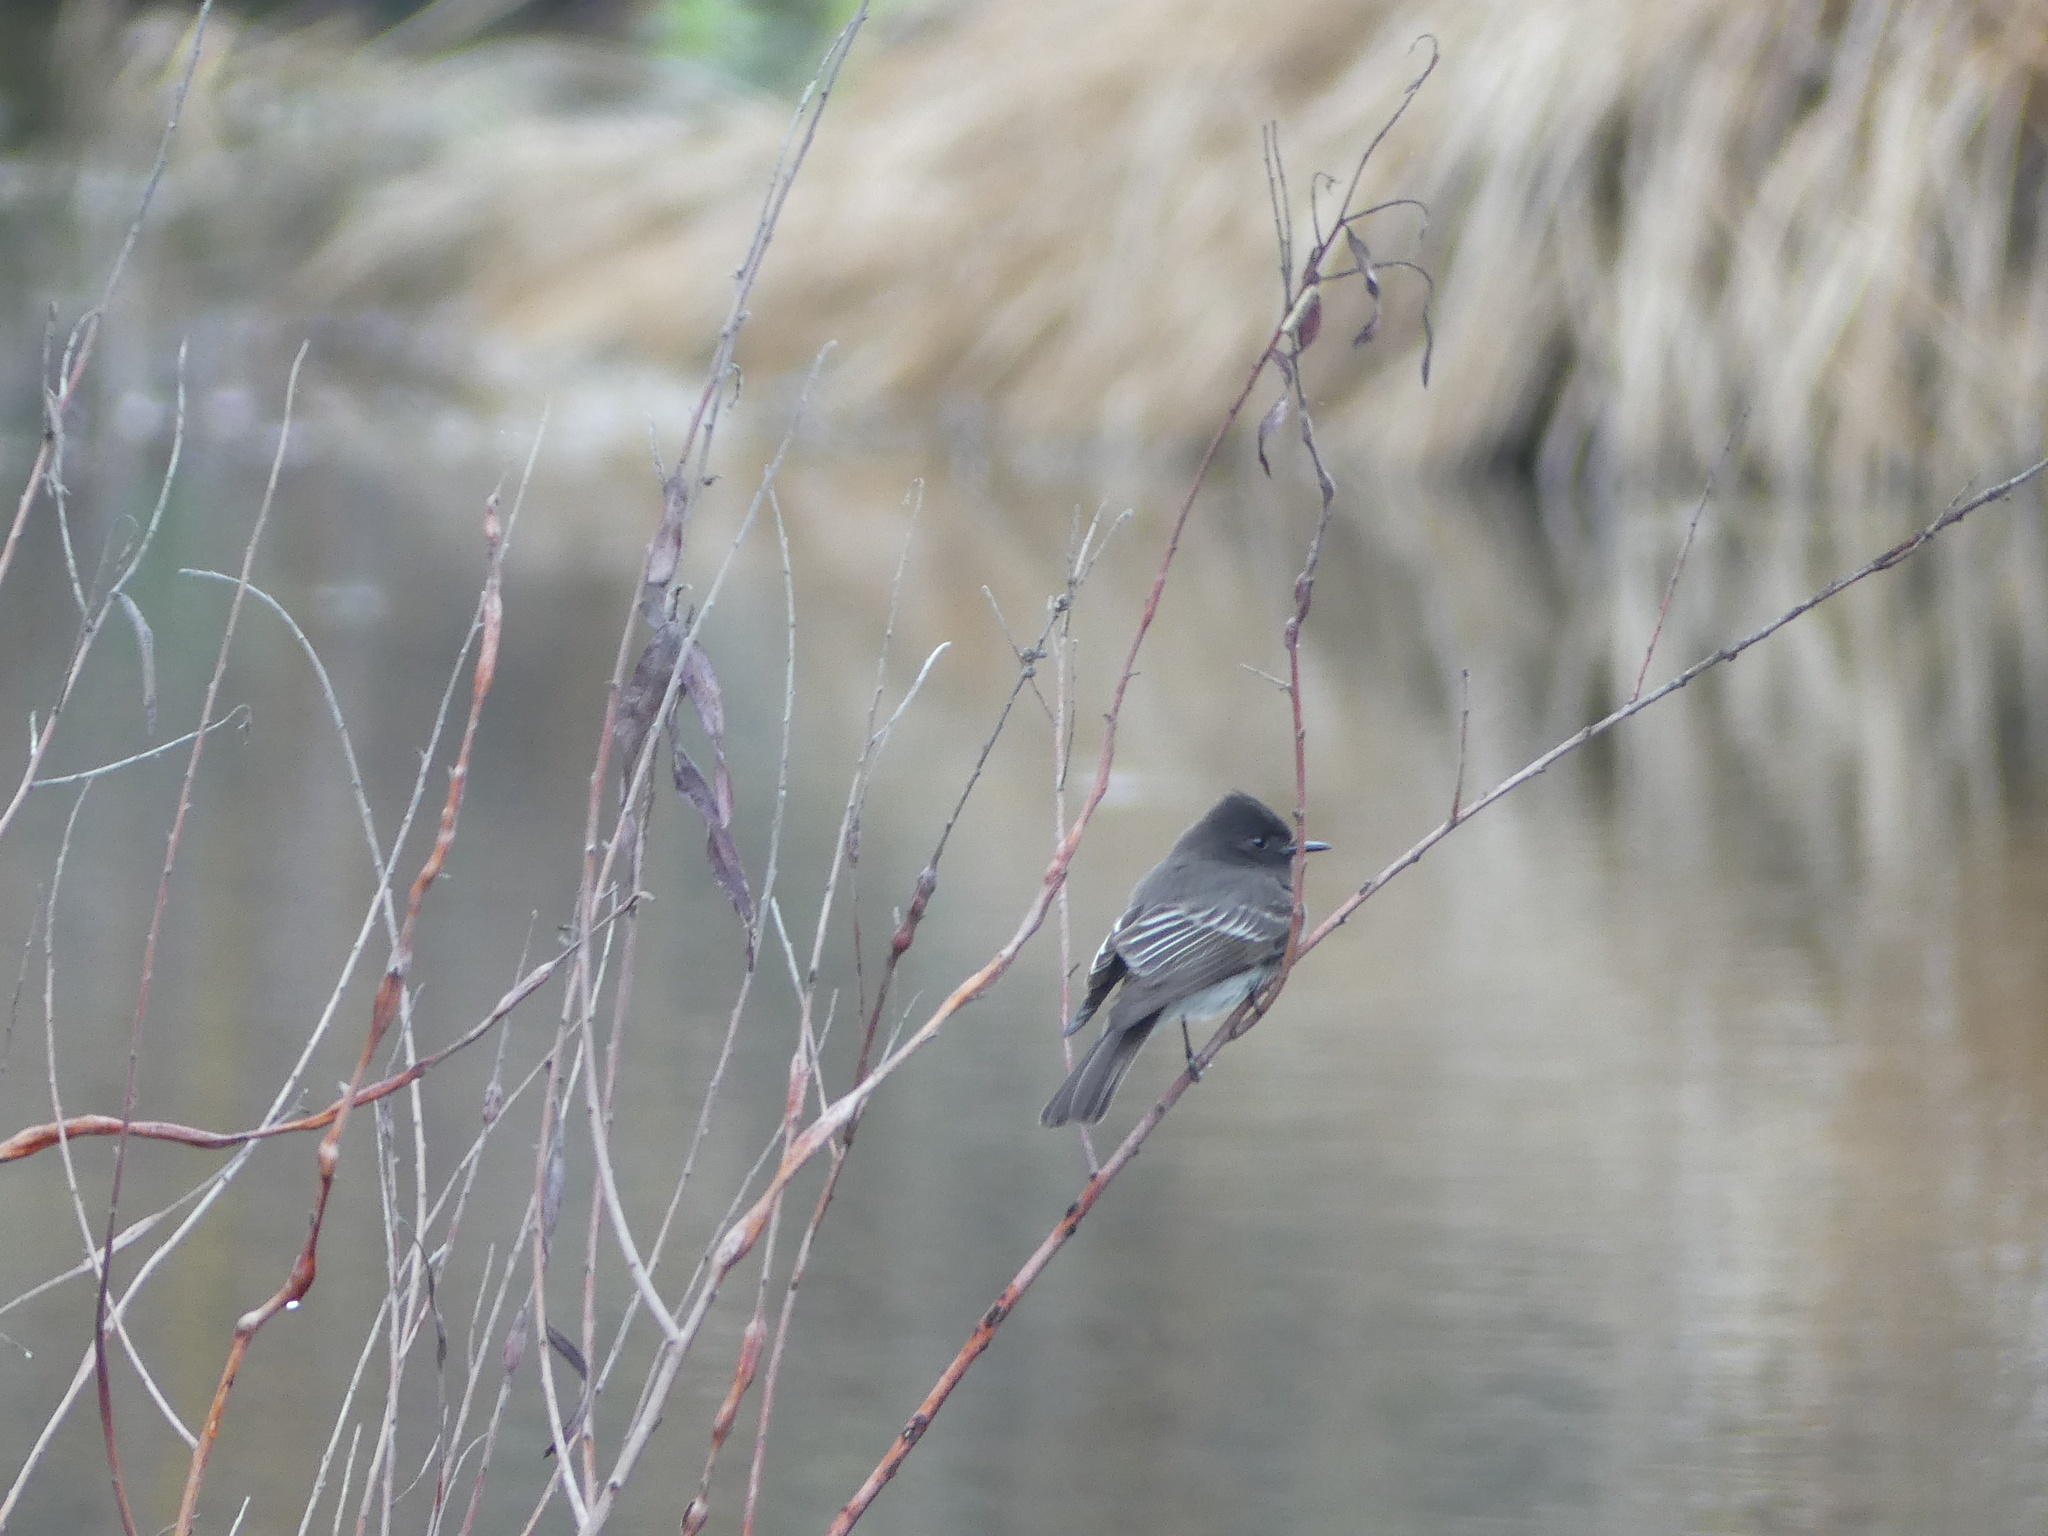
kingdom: Animalia
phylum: Chordata
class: Aves
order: Passeriformes
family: Tyrannidae
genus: Sayornis
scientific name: Sayornis nigricans
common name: Black phoebe
